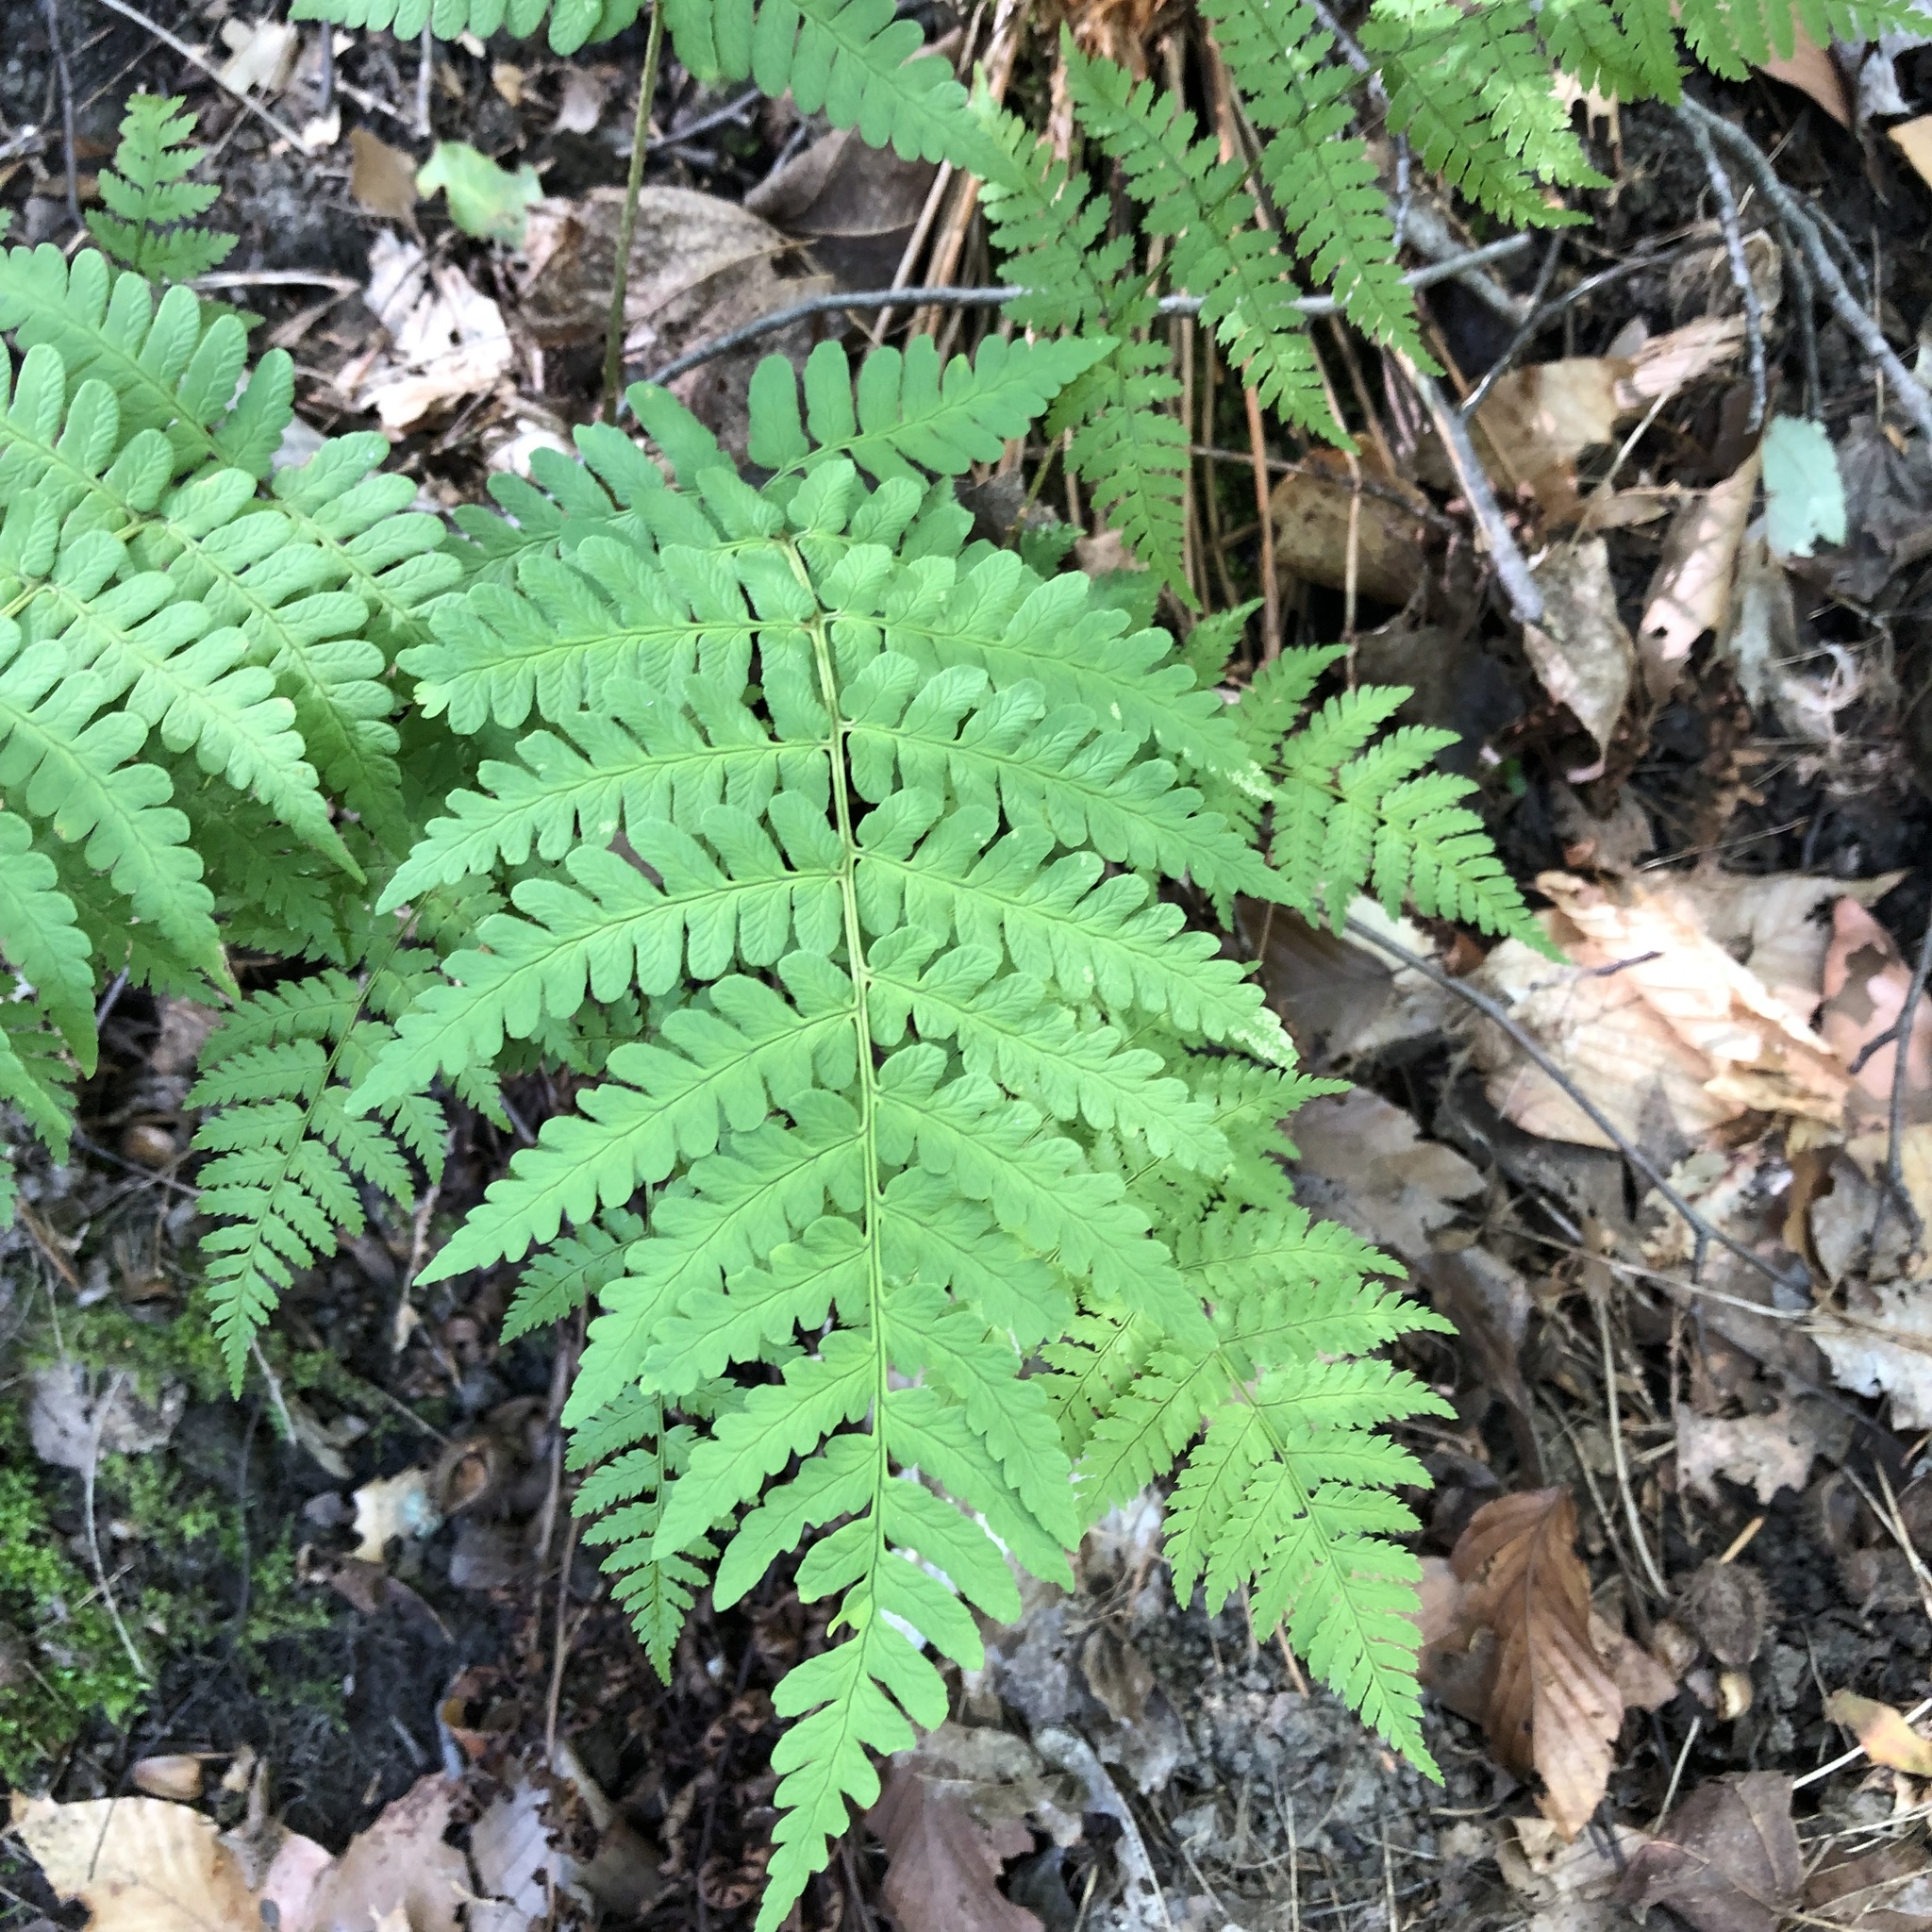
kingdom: Plantae
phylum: Tracheophyta
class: Polypodiopsida
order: Polypodiales
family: Dryopteridaceae
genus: Dryopteris
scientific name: Dryopteris marginalis
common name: Marginal wood fern
